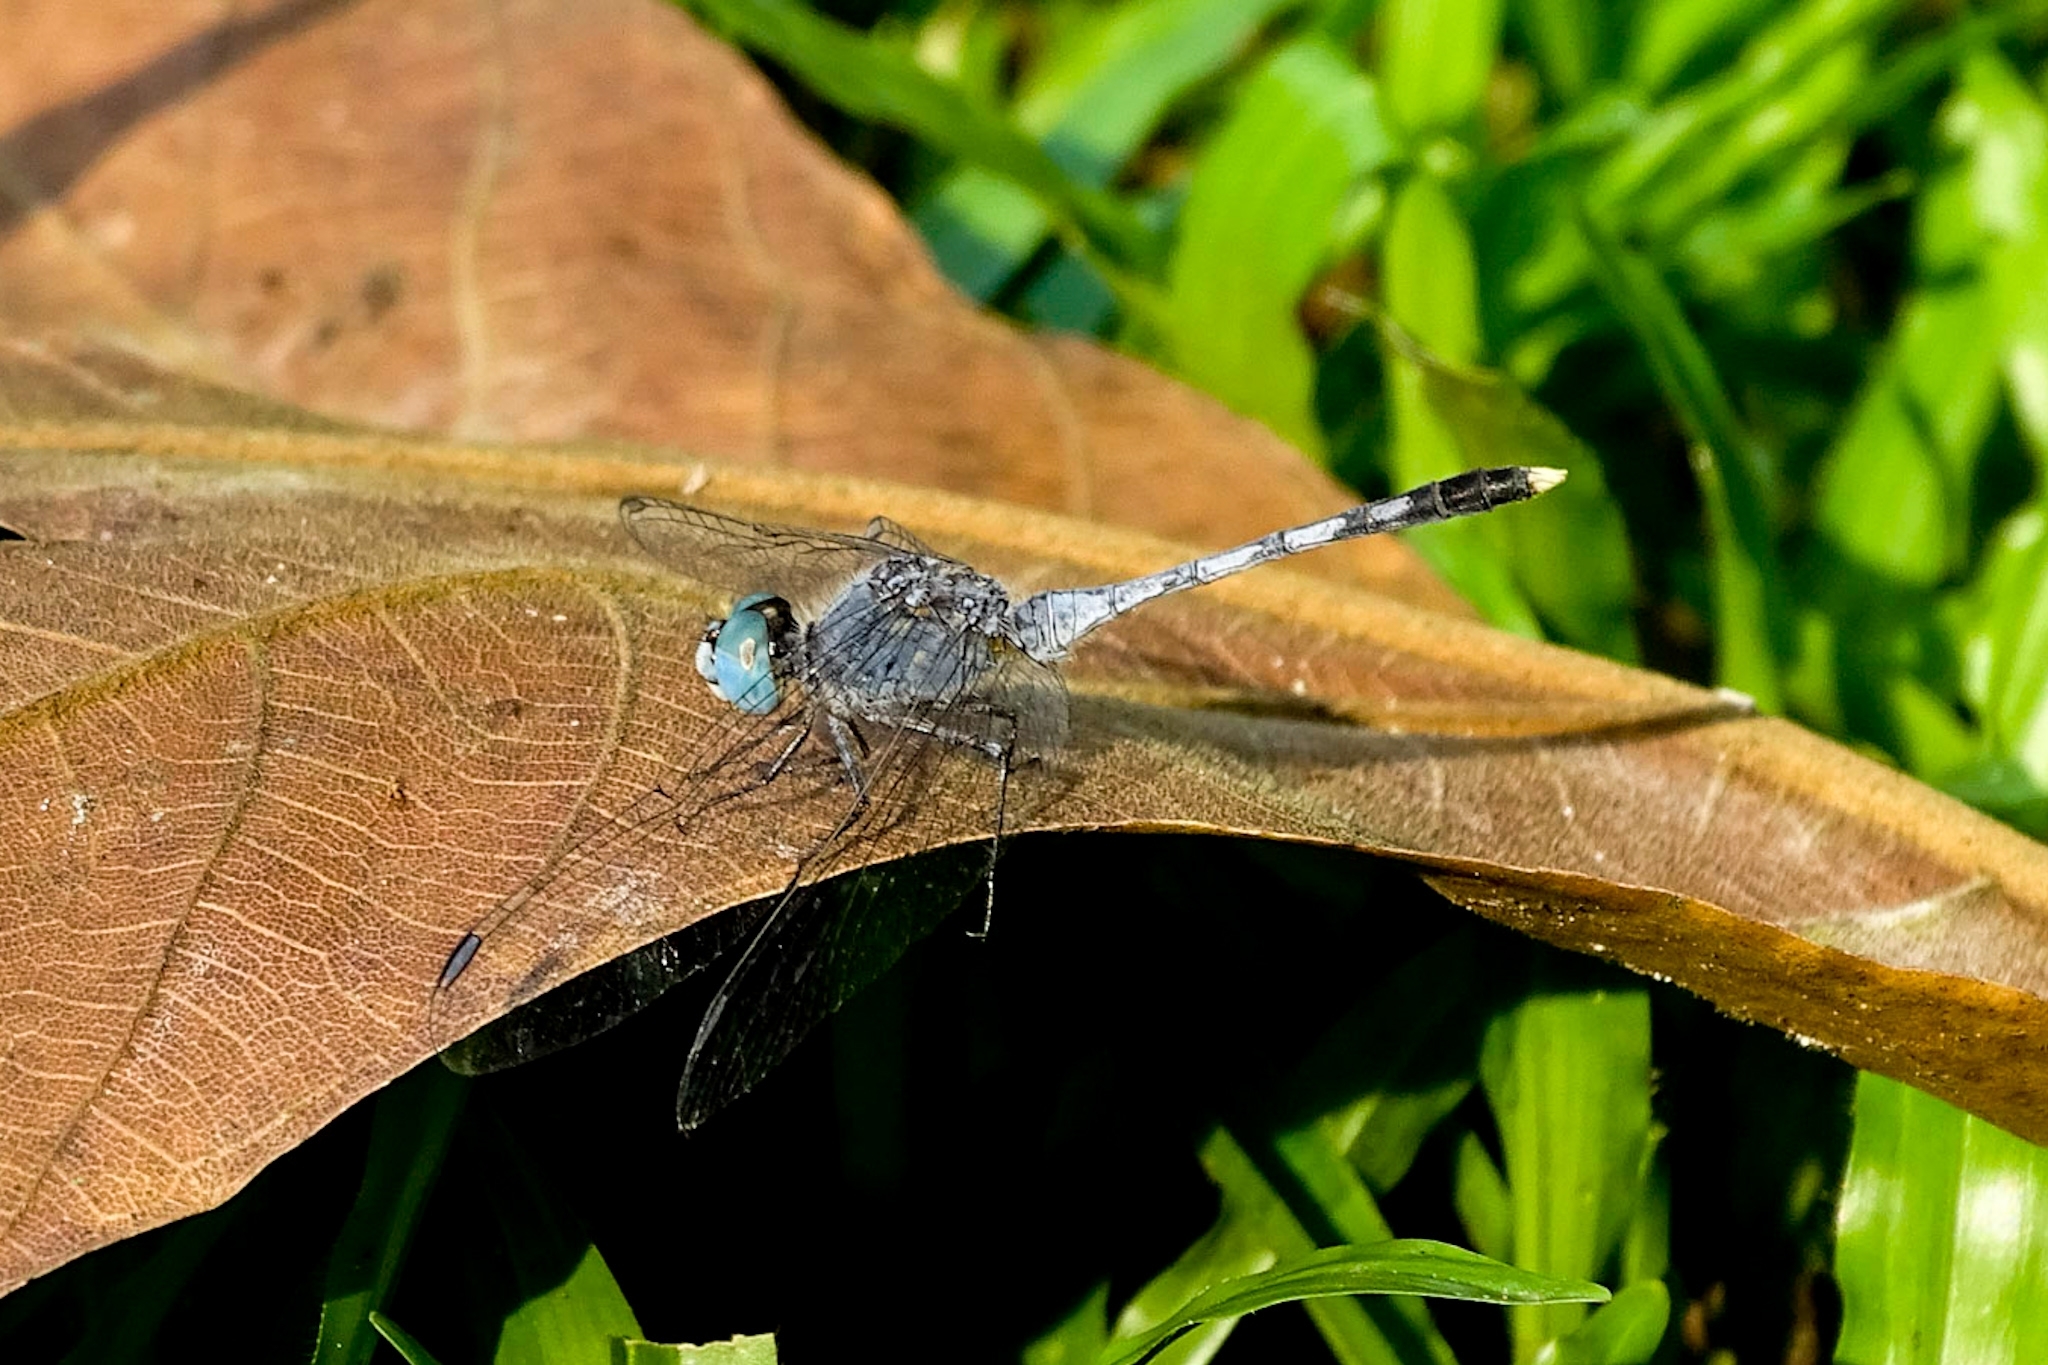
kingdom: Animalia
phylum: Arthropoda
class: Insecta
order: Odonata
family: Libellulidae
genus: Diplacodes
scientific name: Diplacodes trivialis
